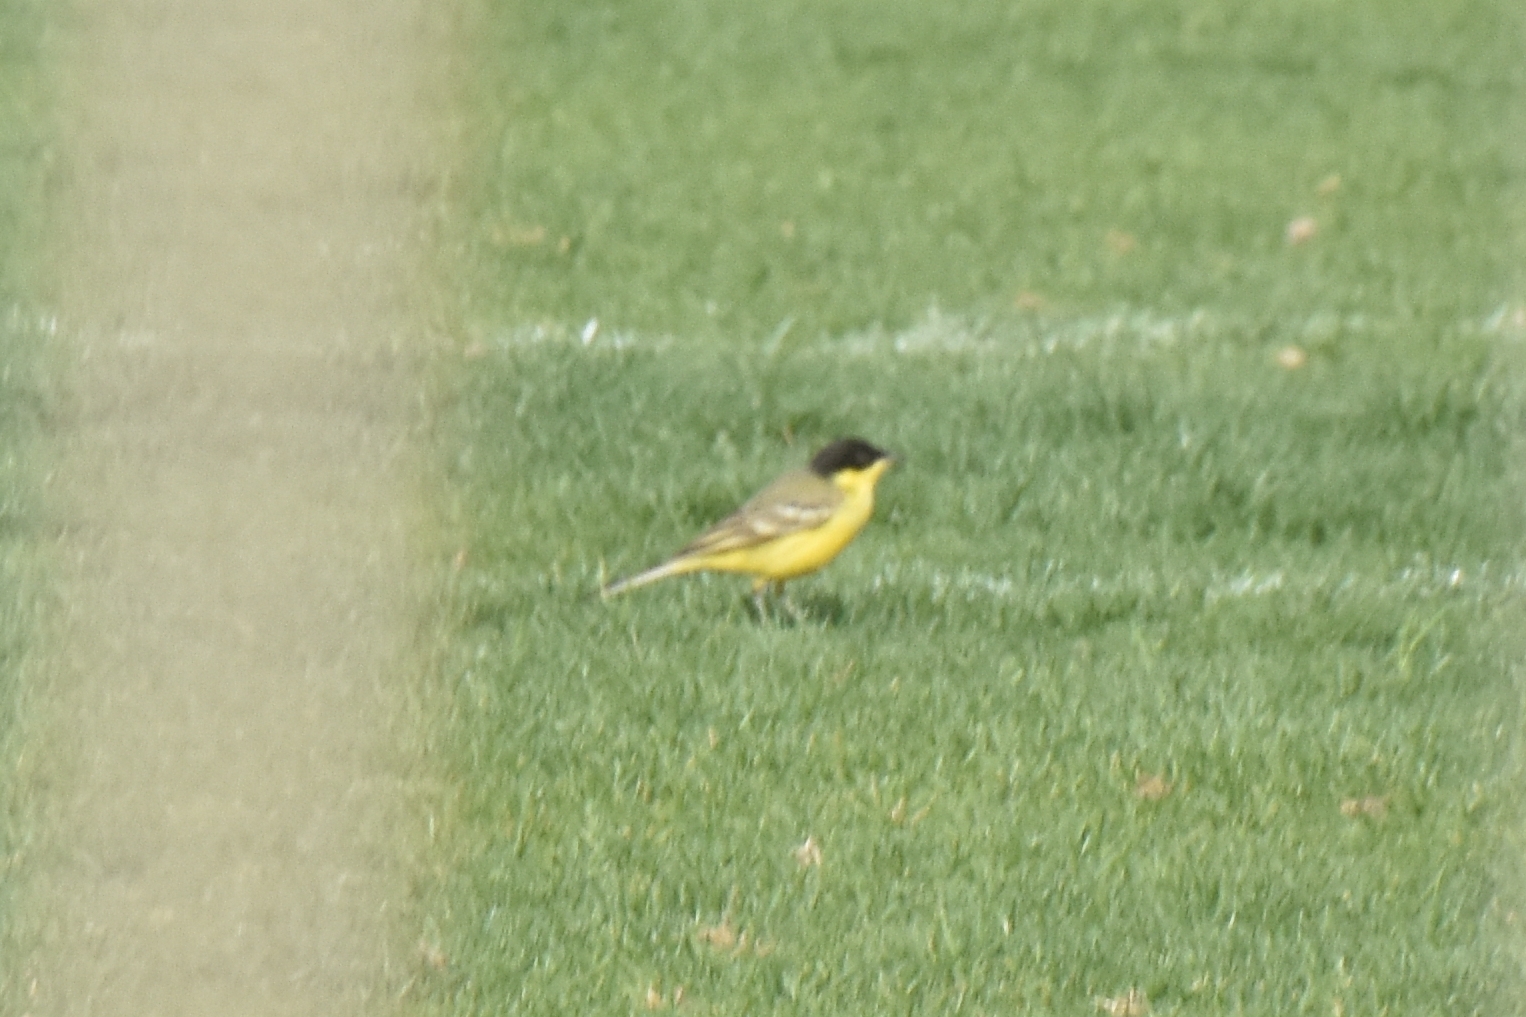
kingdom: Animalia
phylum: Chordata
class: Aves
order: Passeriformes
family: Motacillidae
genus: Motacilla
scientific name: Motacilla flava
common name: Western yellow wagtail
